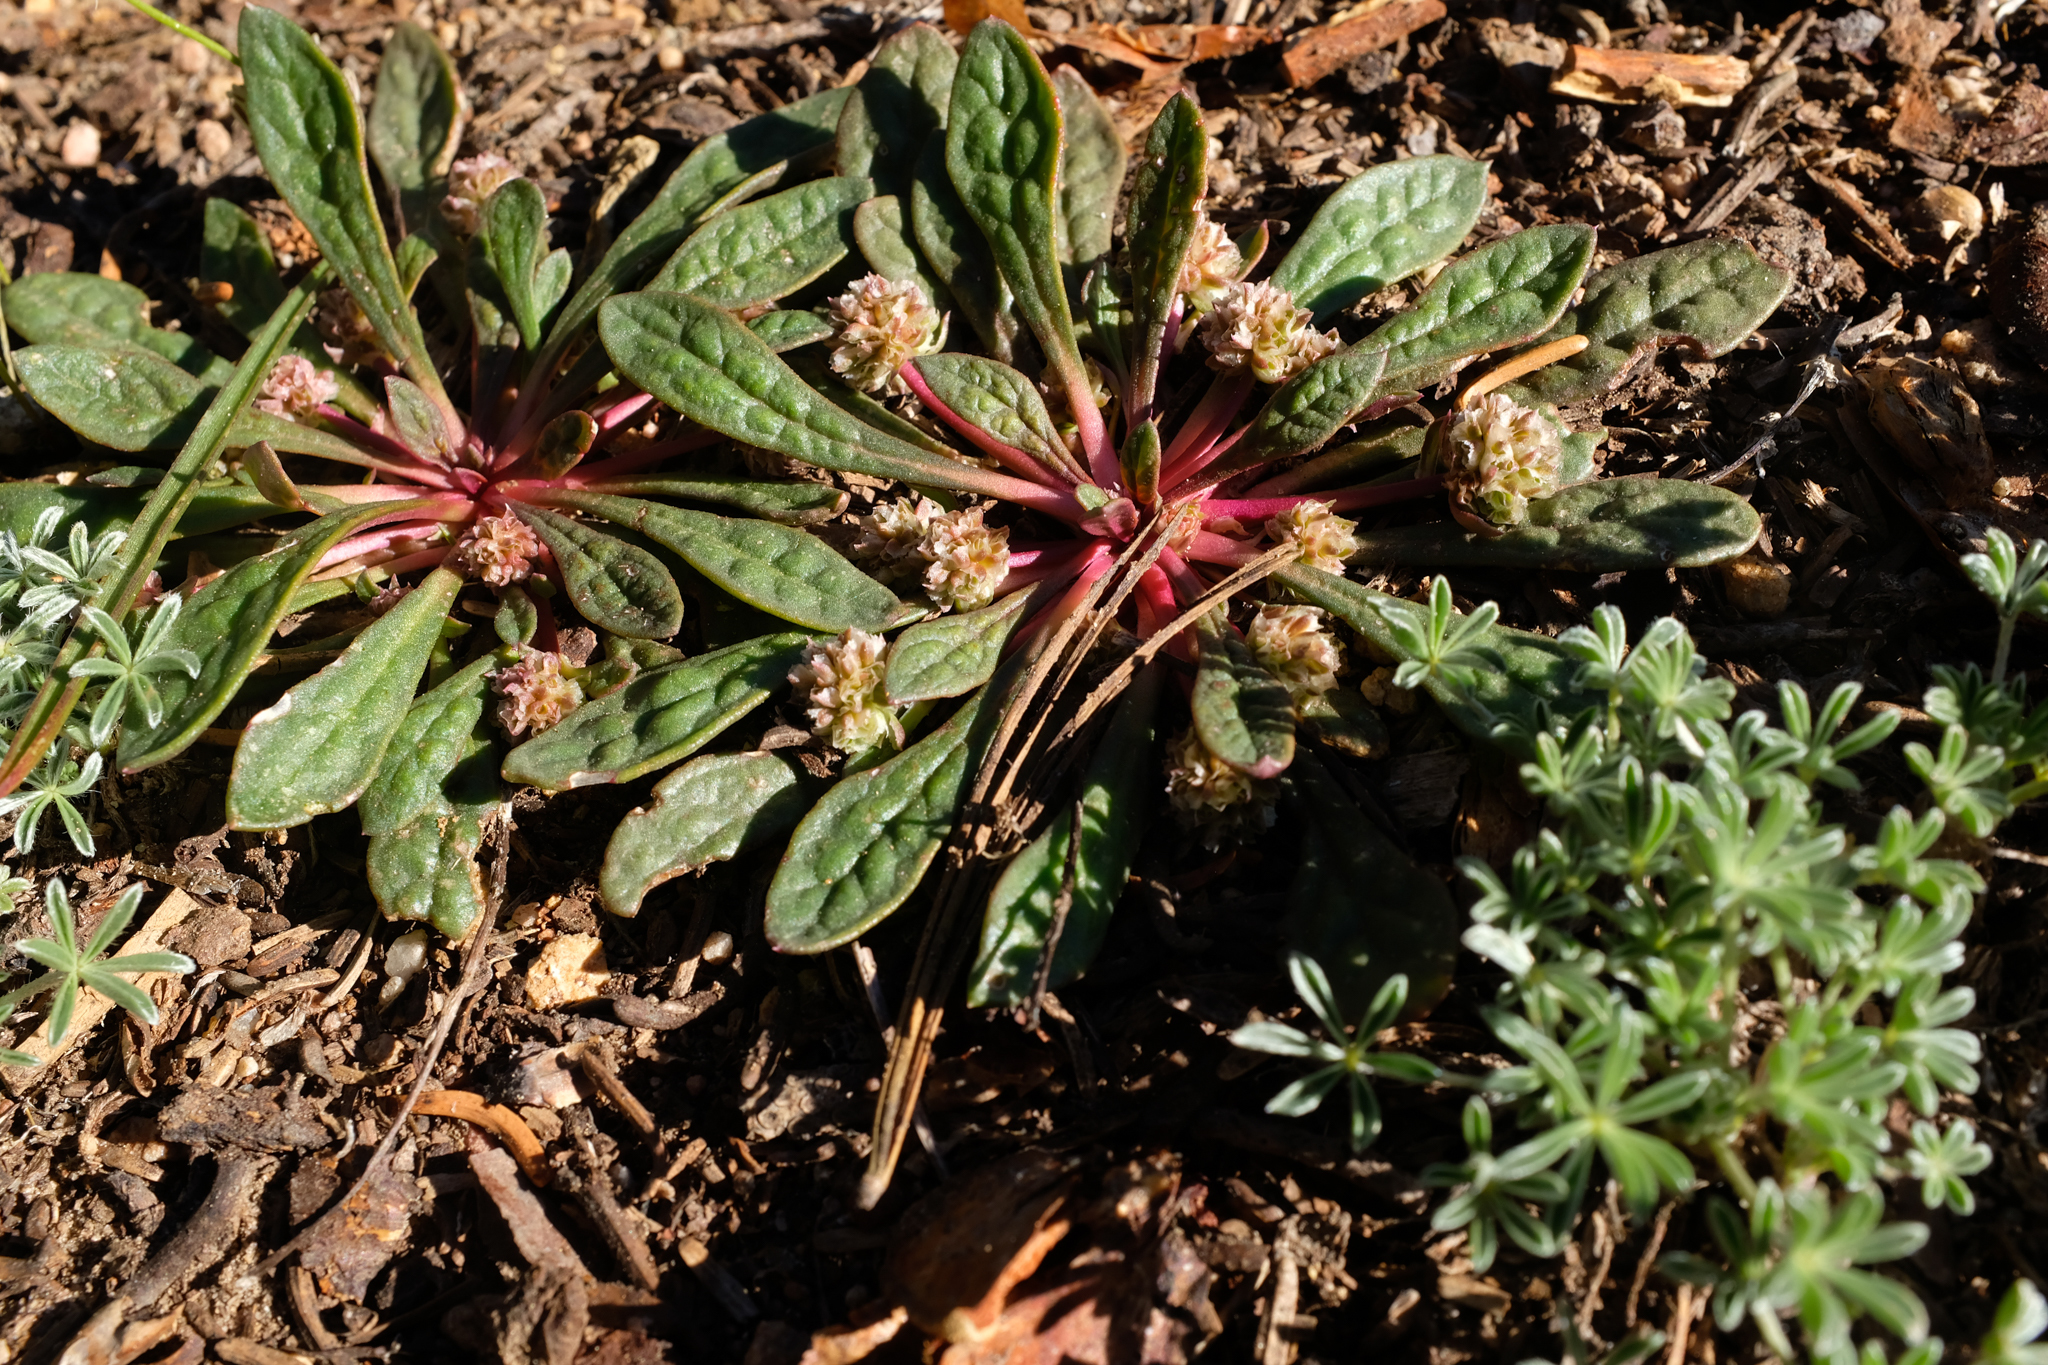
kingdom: Plantae
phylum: Tracheophyta
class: Magnoliopsida
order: Caryophyllales
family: Montiaceae
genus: Calyptridium
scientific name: Calyptridium monospermum
